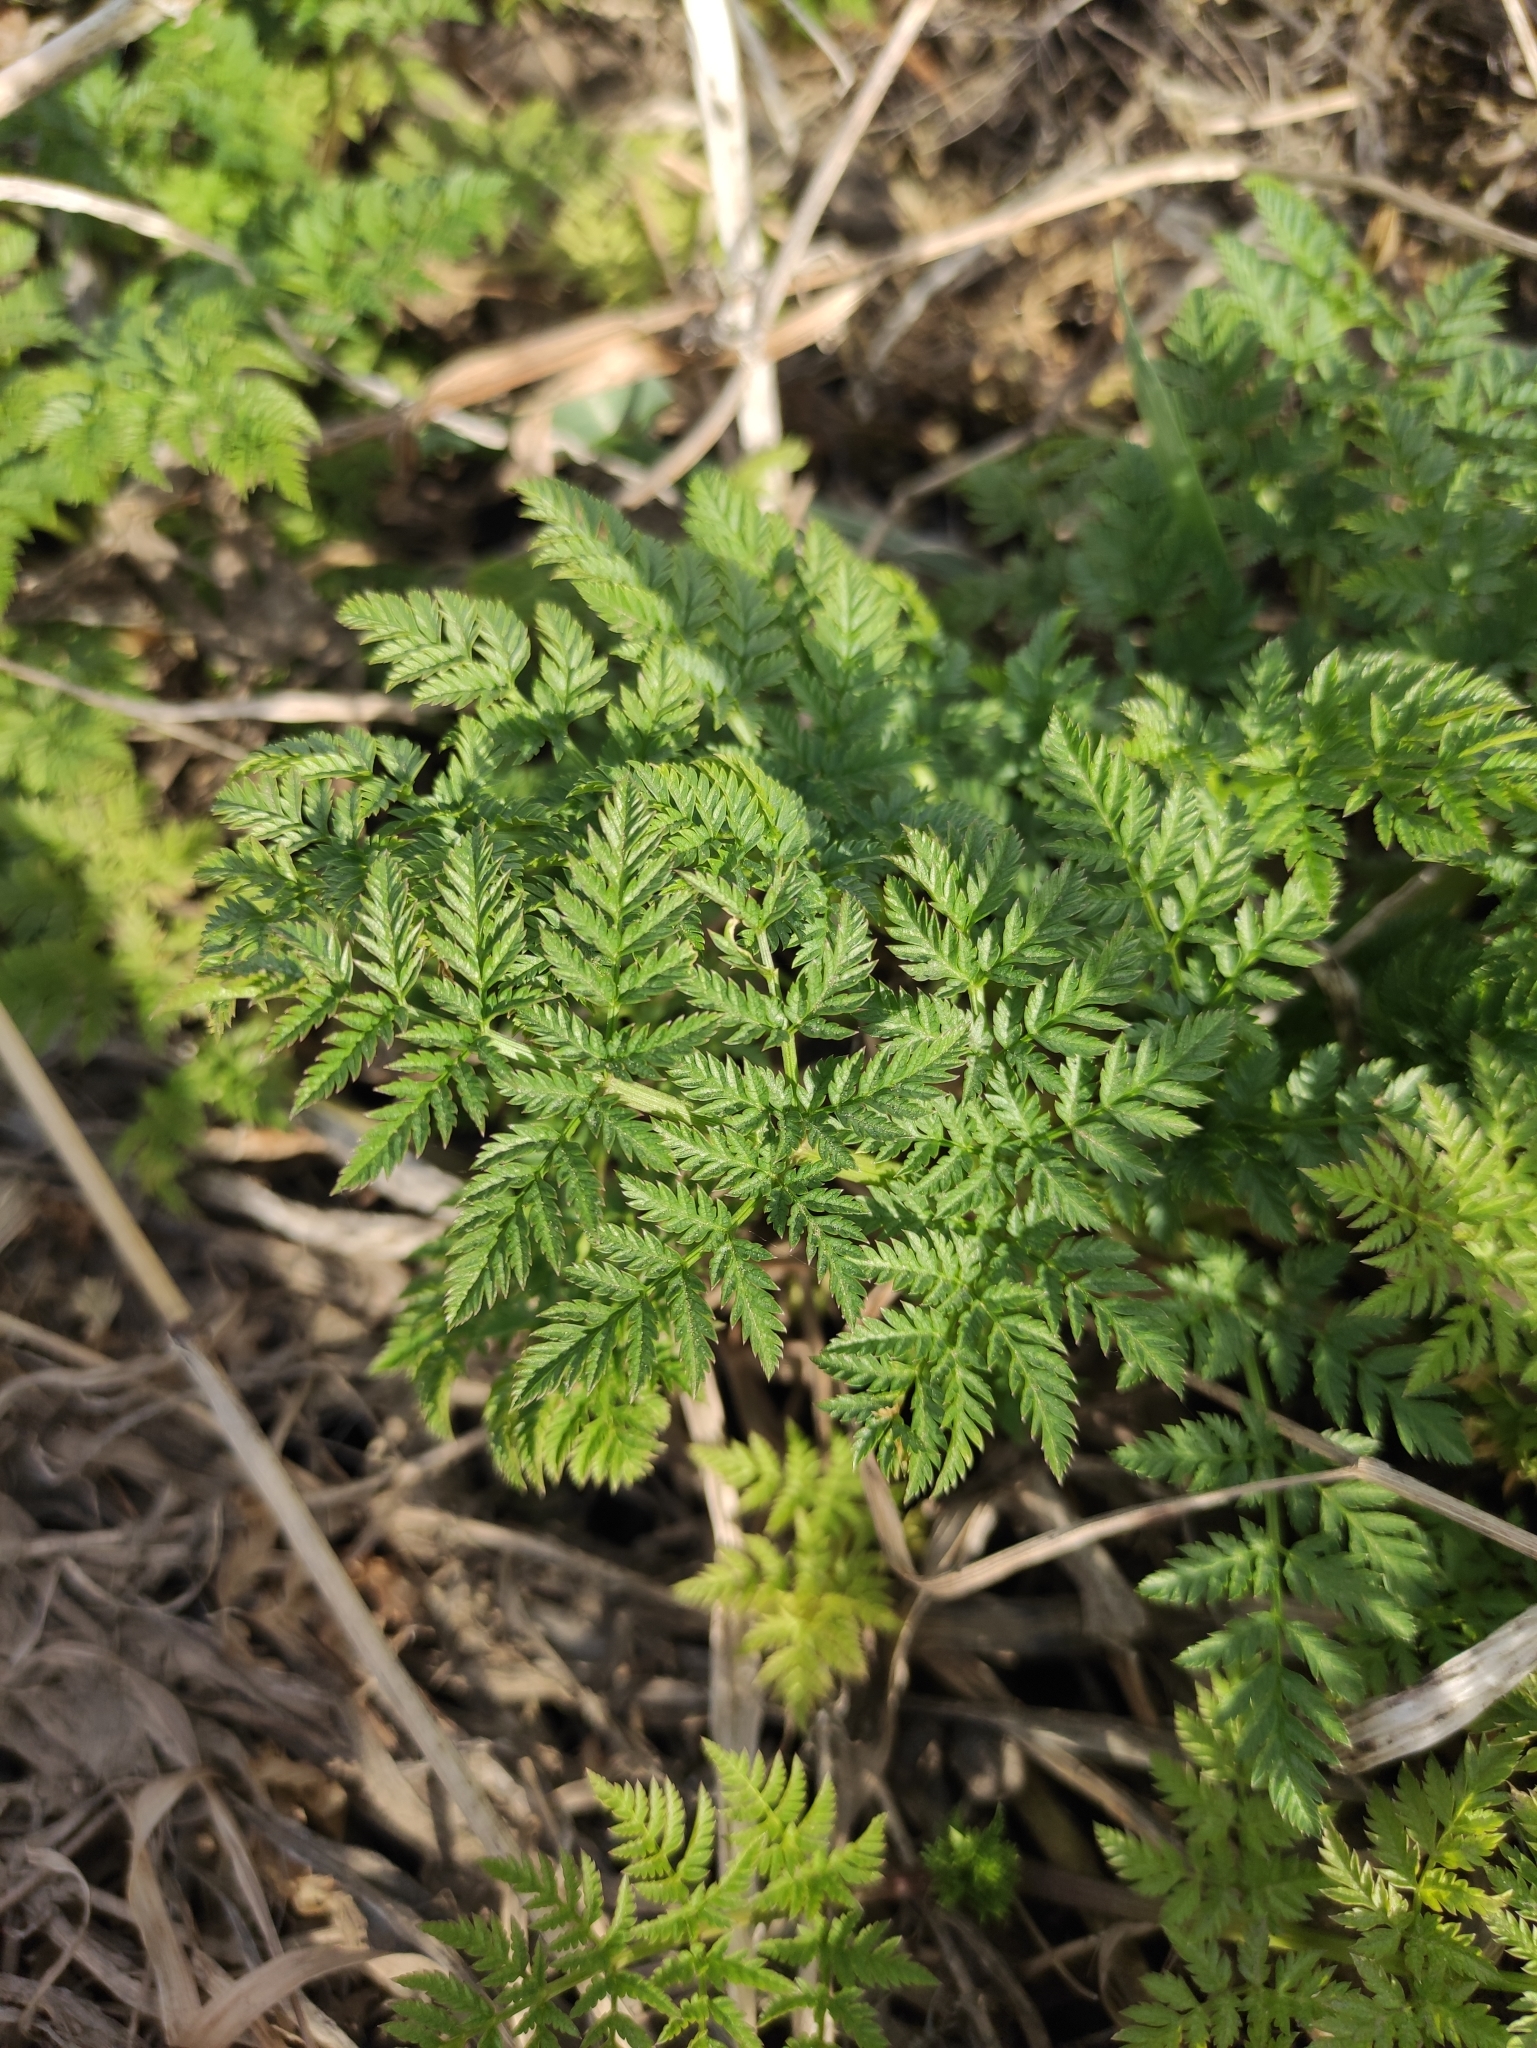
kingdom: Plantae
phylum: Tracheophyta
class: Magnoliopsida
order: Apiales
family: Apiaceae
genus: Conium
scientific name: Conium maculatum
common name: Hemlock
